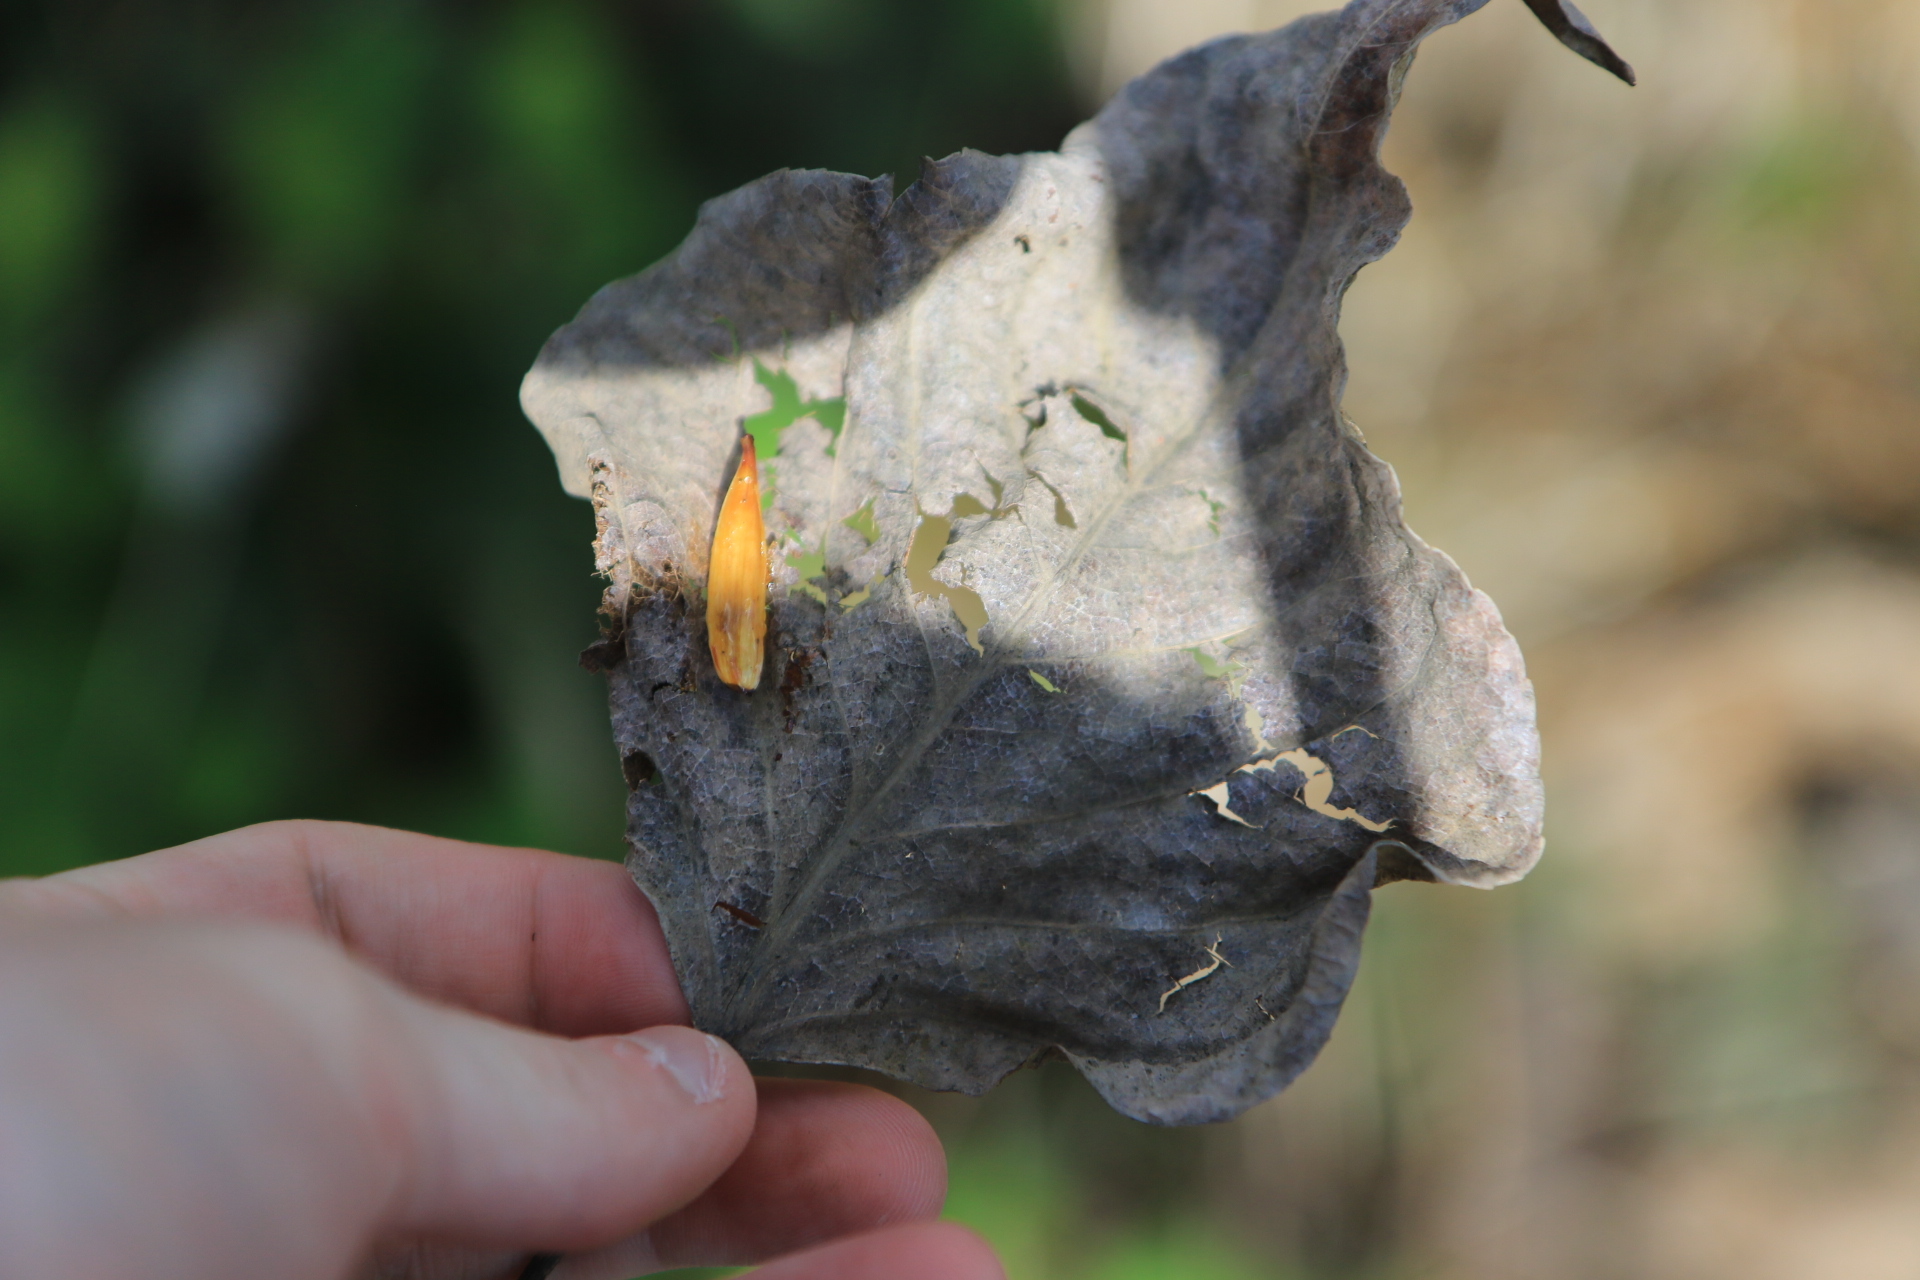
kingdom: Plantae
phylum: Tracheophyta
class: Magnoliopsida
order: Malpighiales
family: Salicaceae
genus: Populus
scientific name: Populus trichocarpa
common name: Black cottonwood
